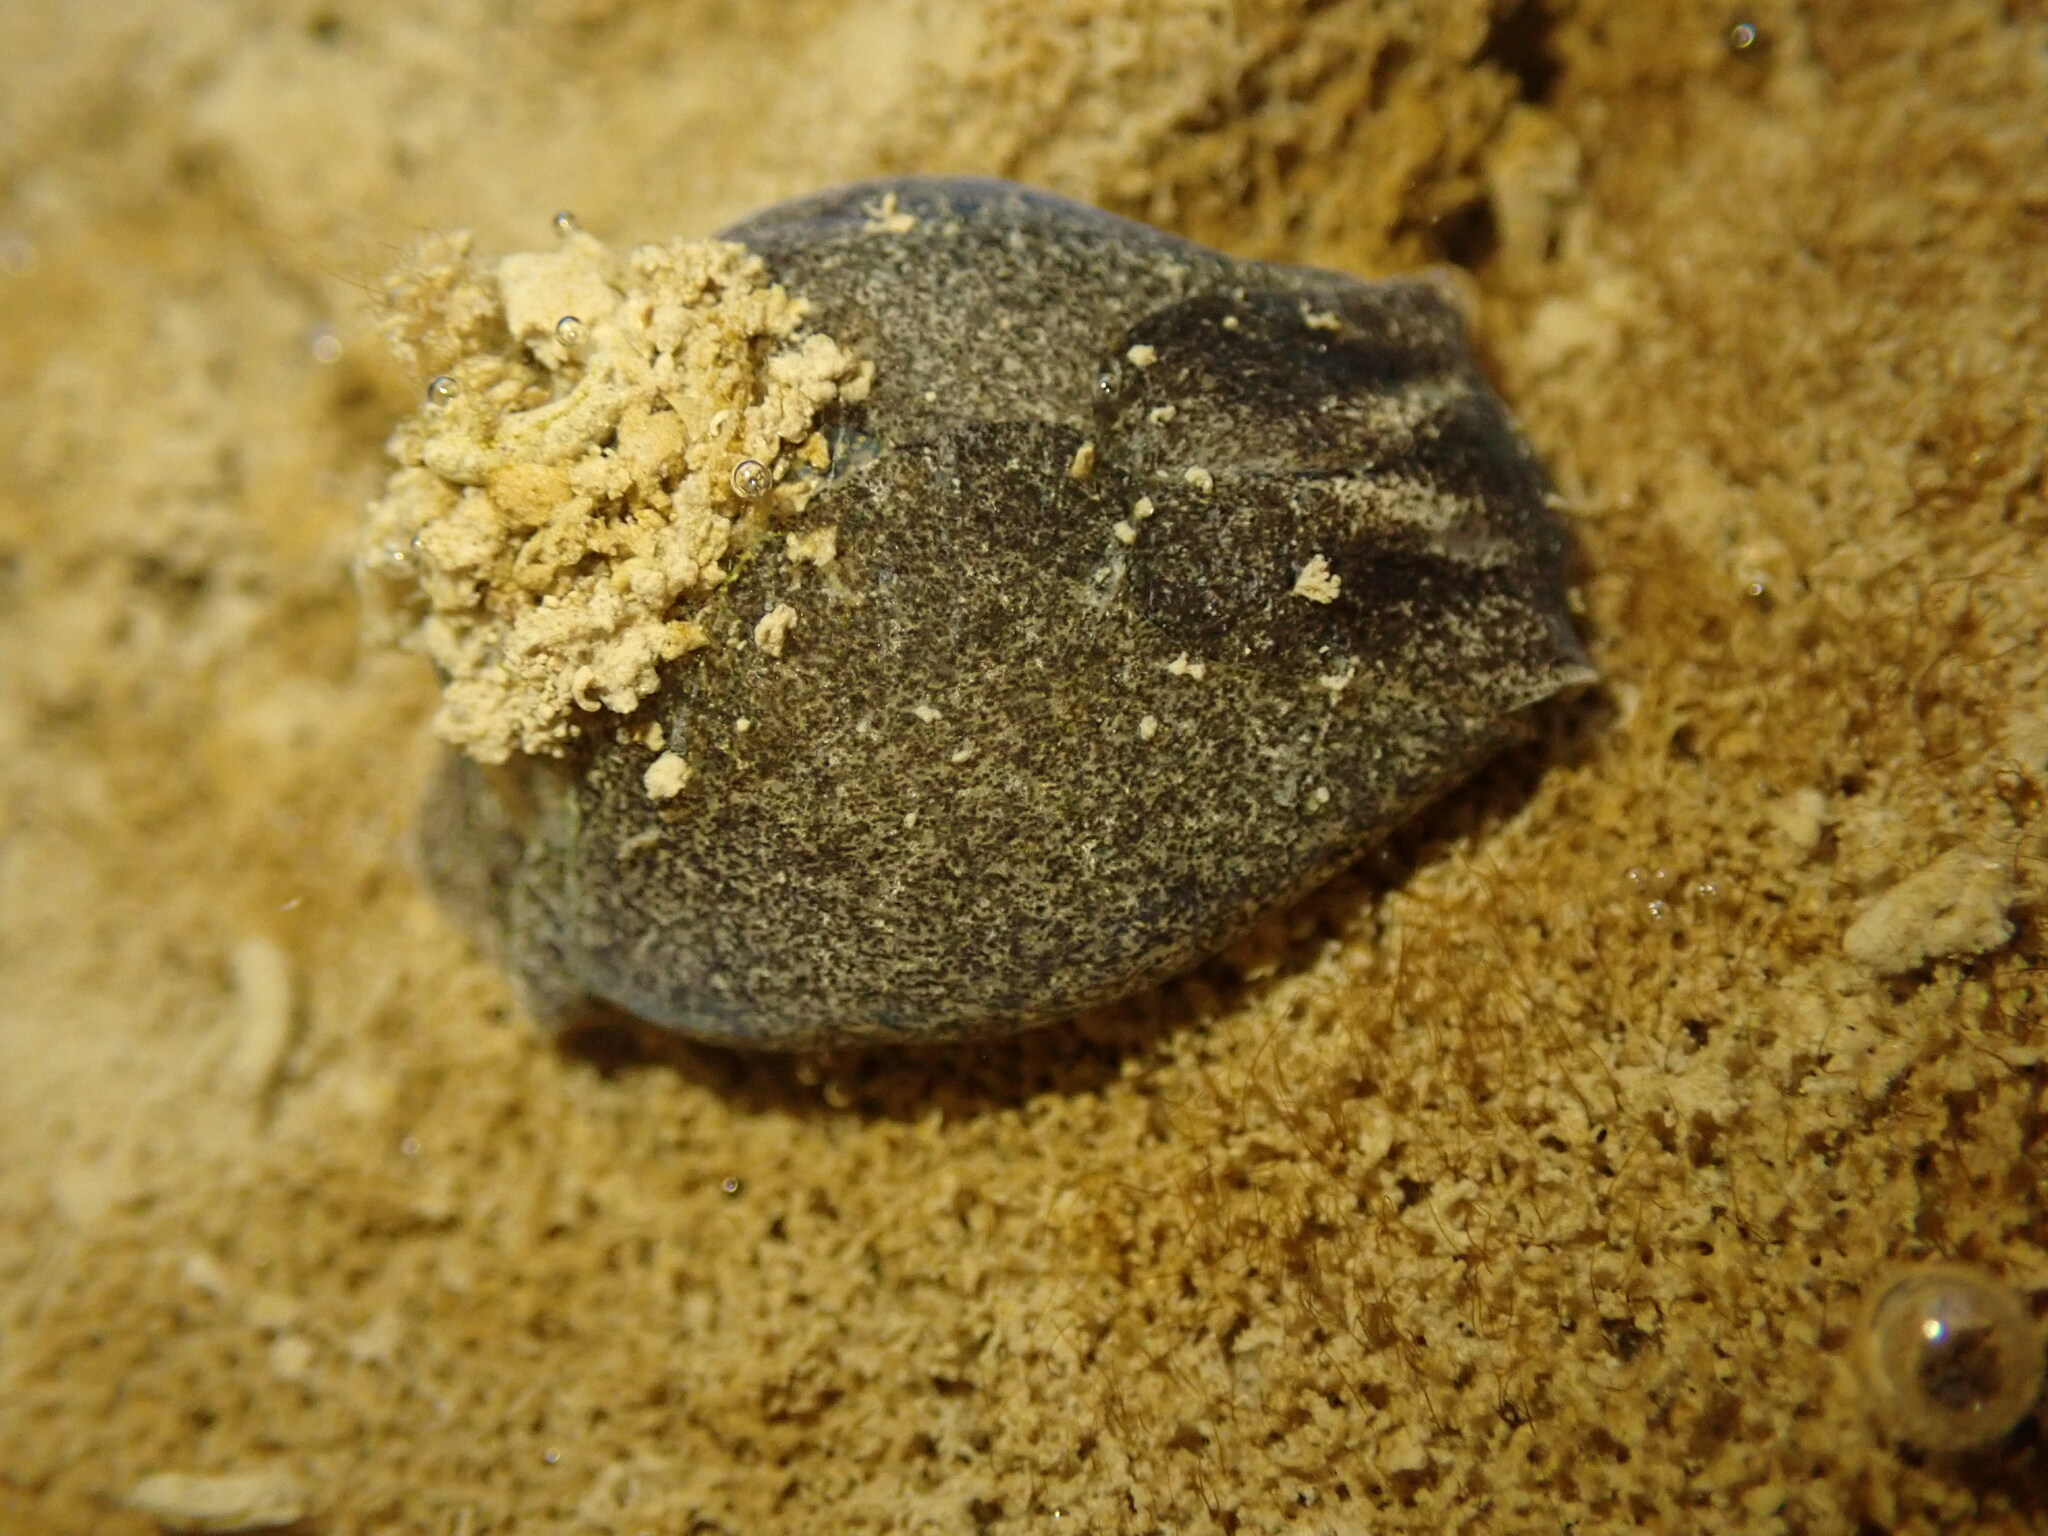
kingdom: Animalia
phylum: Mollusca
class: Gastropoda
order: Cephalaspidea
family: Haminoeidae
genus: Papawera
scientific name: Papawera zelandiae
